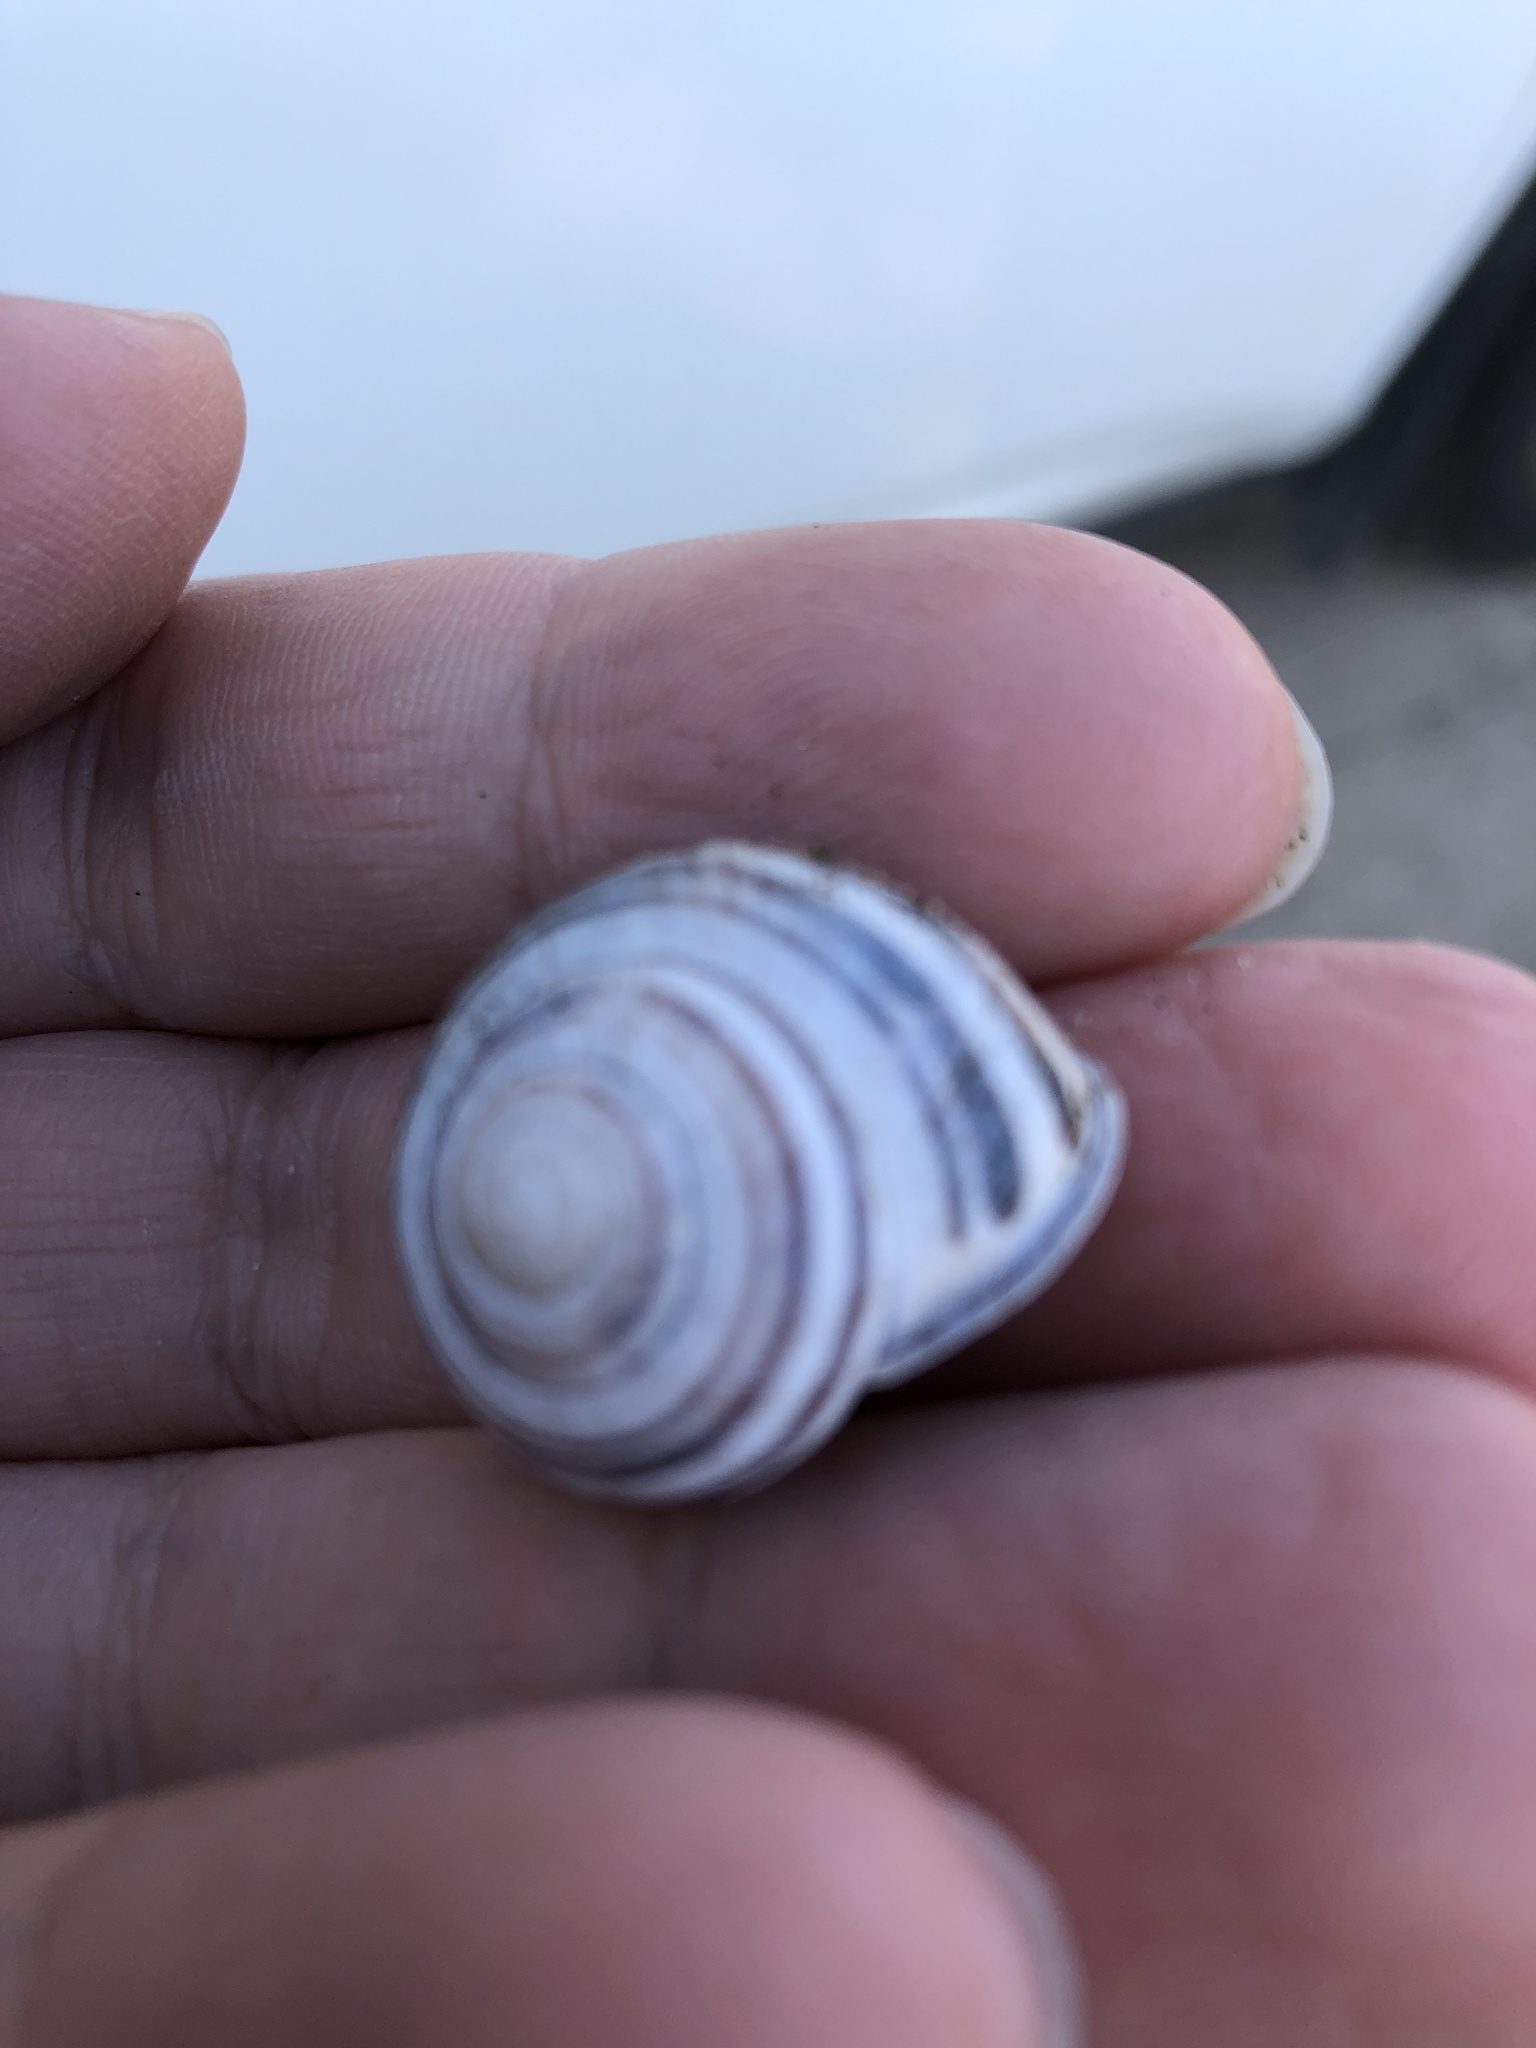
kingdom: Animalia
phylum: Mollusca
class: Gastropoda
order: Stylommatophora
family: Helicidae
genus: Cepaea
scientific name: Cepaea nemoralis
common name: Grovesnail
